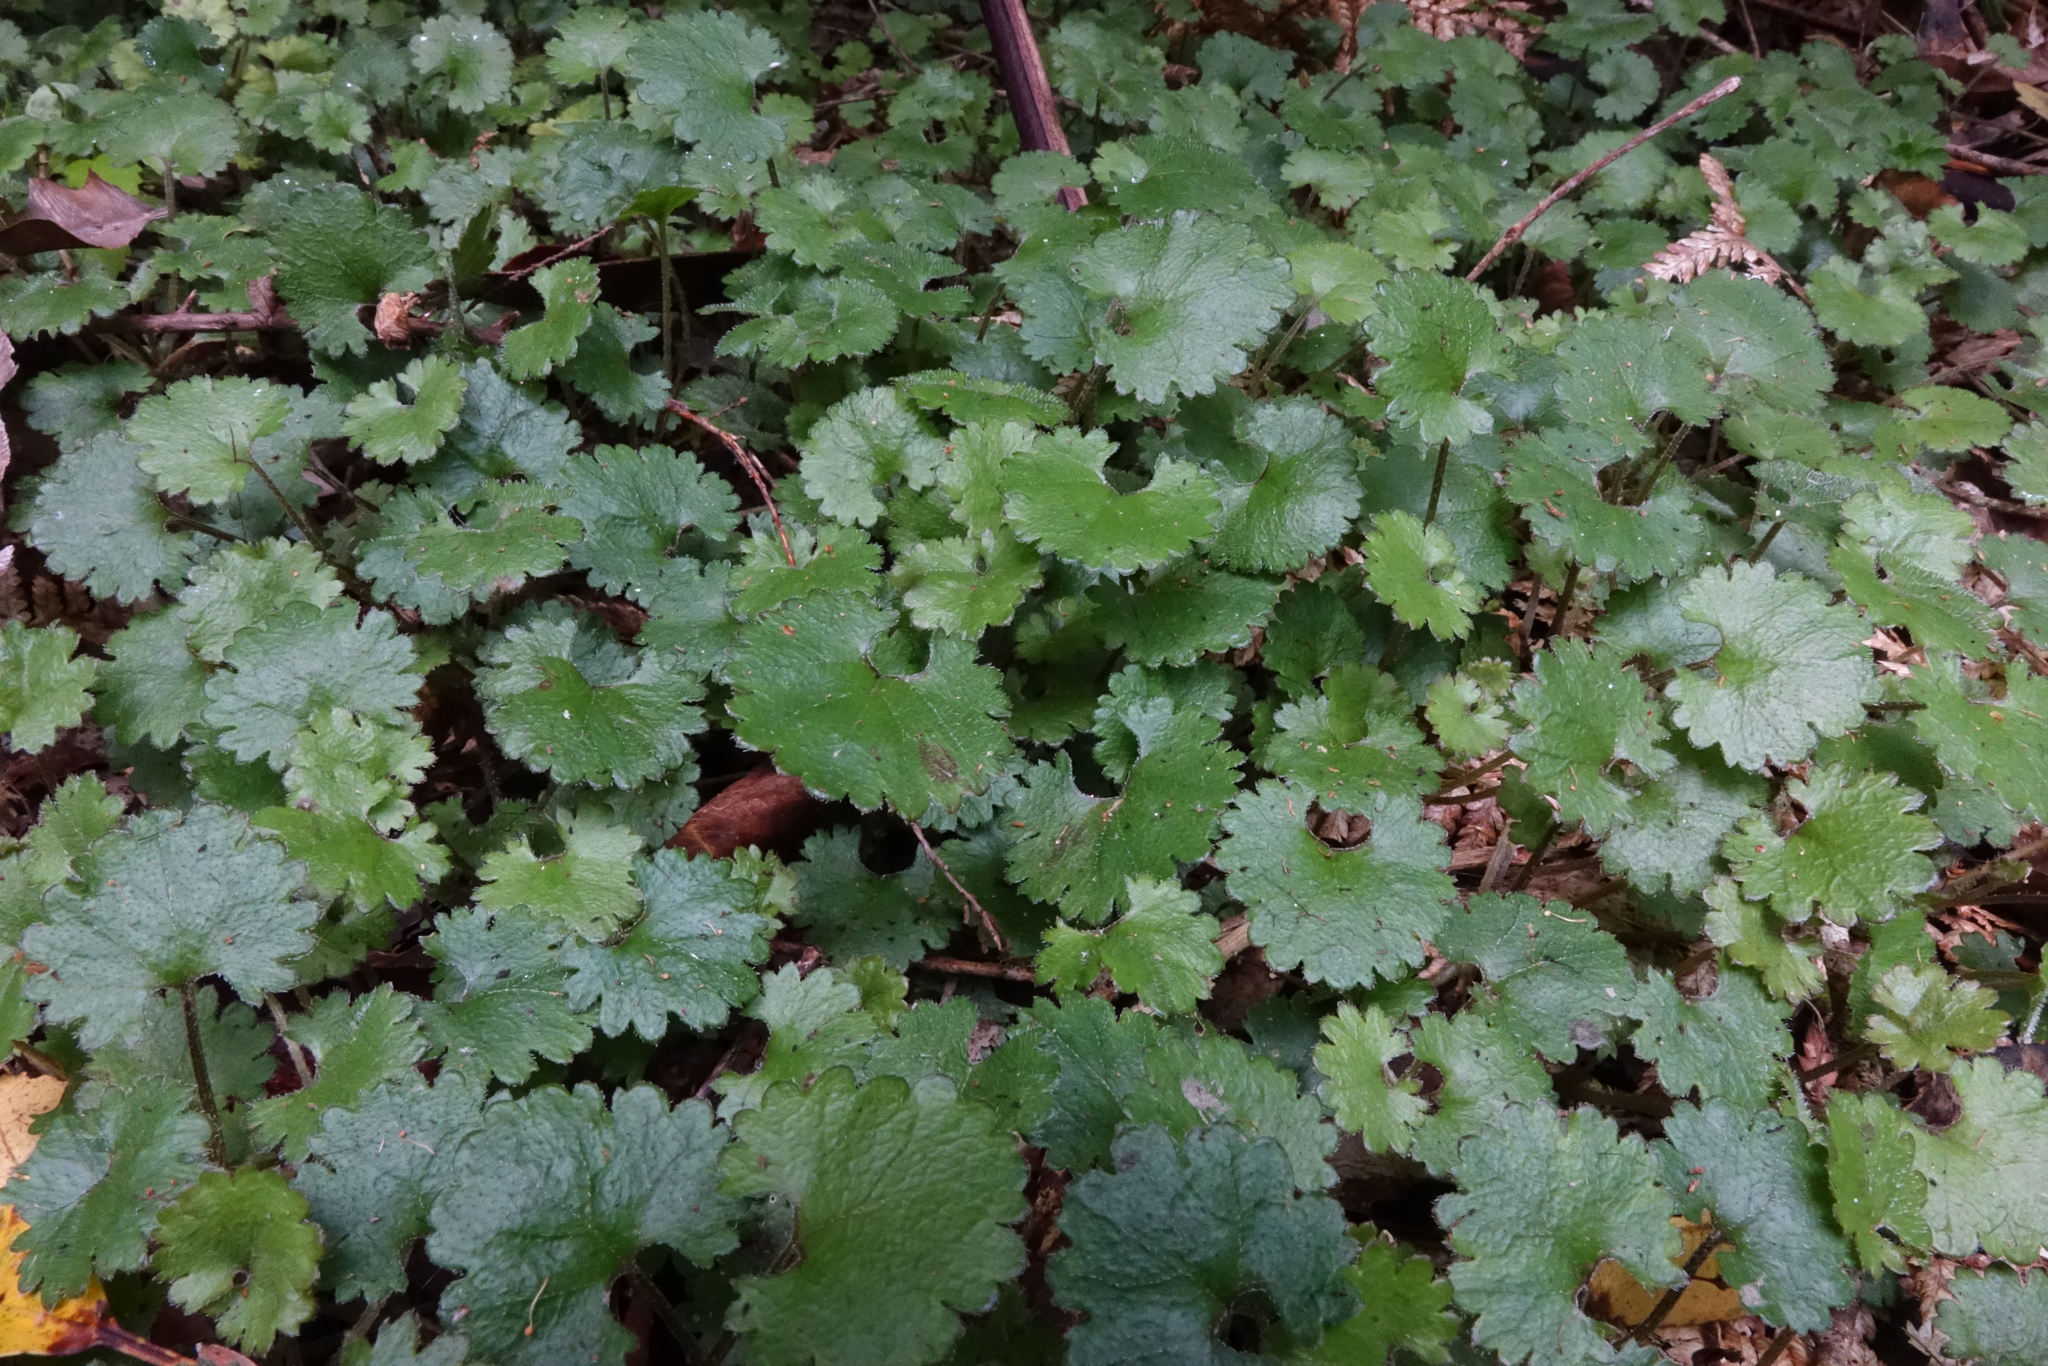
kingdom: Plantae
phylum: Tracheophyta
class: Magnoliopsida
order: Gunnerales
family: Gunneraceae
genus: Gunnera
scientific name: Gunnera monoica
